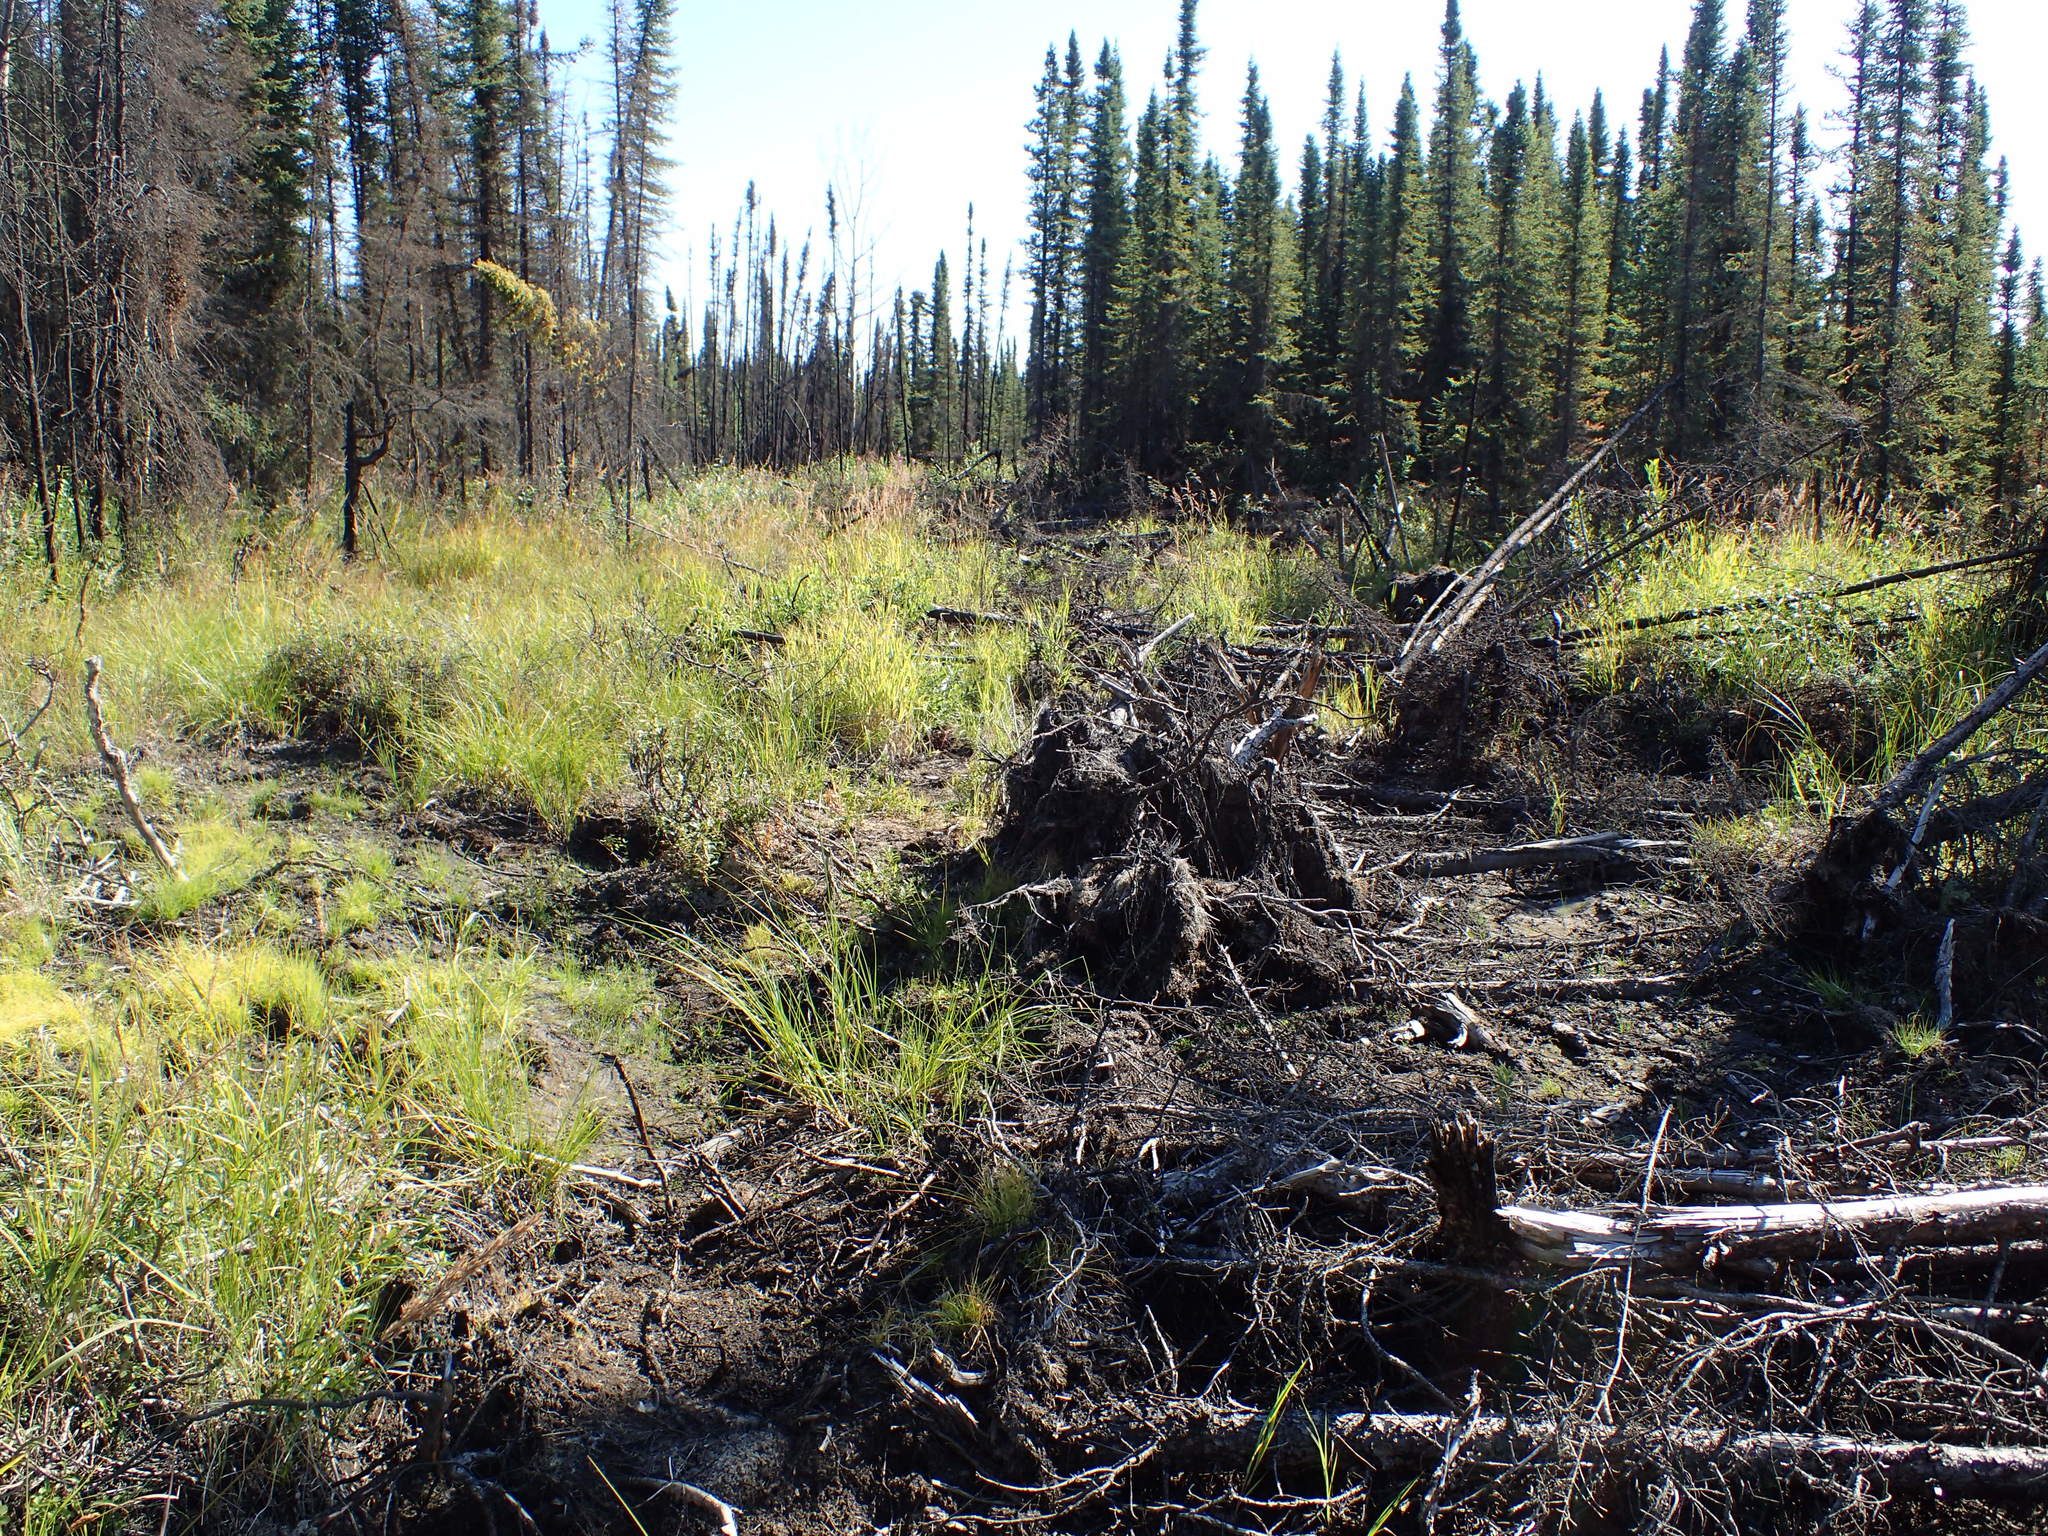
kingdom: Plantae
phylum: Tracheophyta
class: Magnoliopsida
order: Asterales
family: Asteraceae
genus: Taraxacum
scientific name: Taraxacum officinale
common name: Common dandelion
